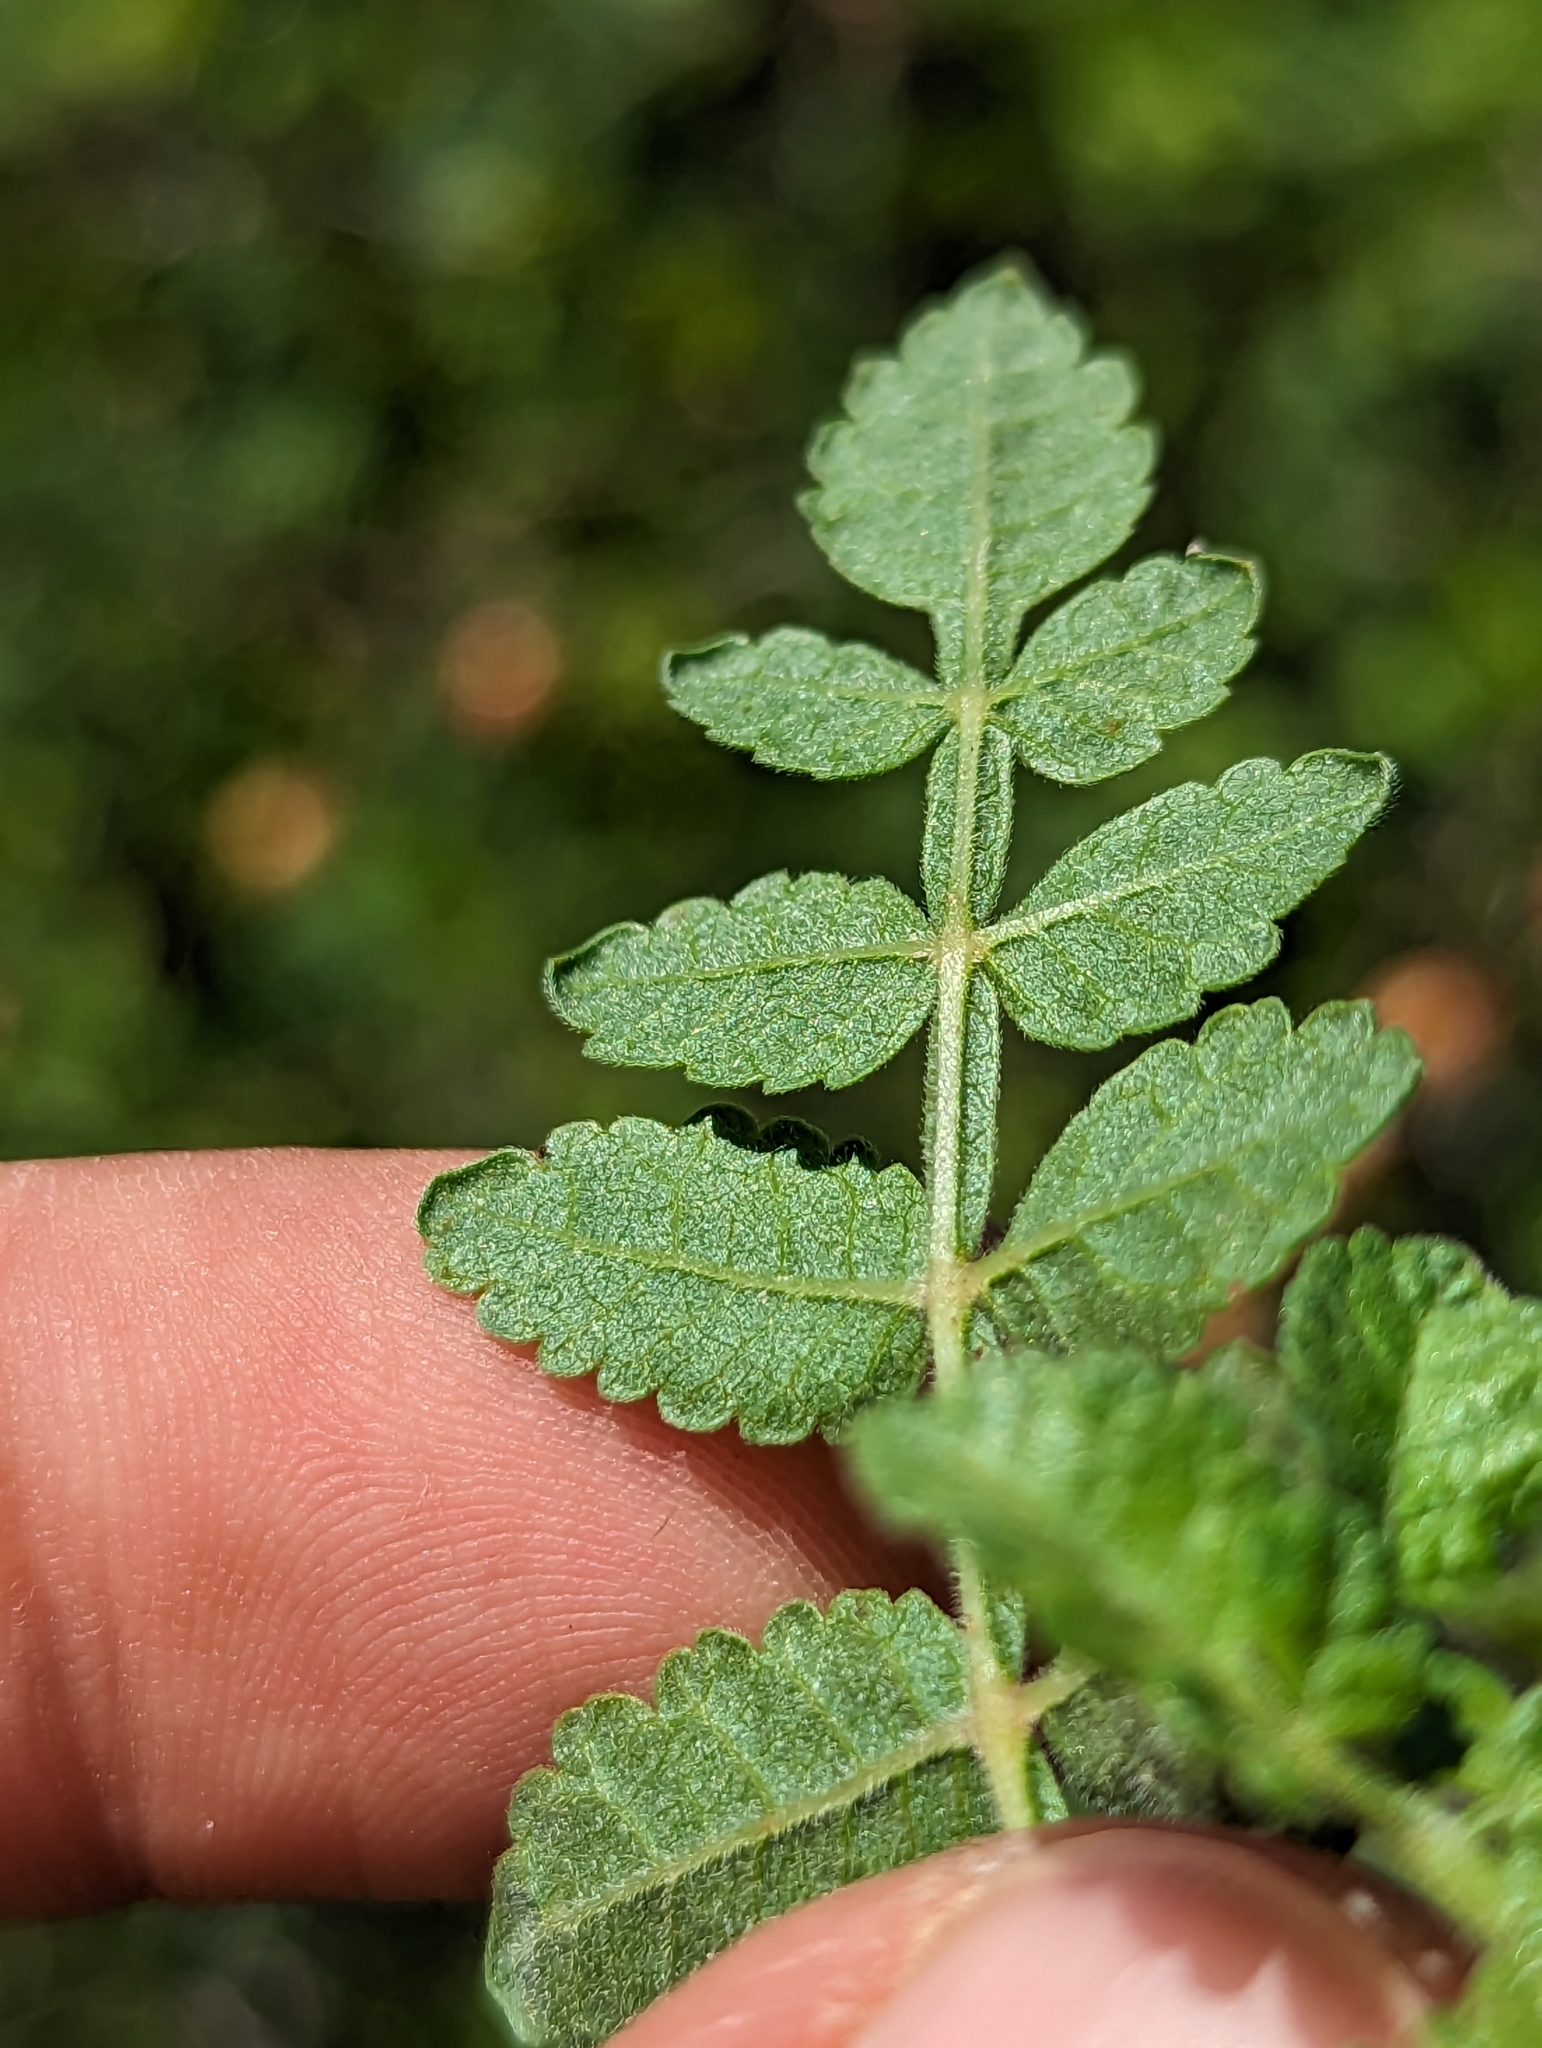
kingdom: Plantae
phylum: Tracheophyta
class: Magnoliopsida
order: Sapindales
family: Burseraceae
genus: Bursera
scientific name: Bursera littoralis
